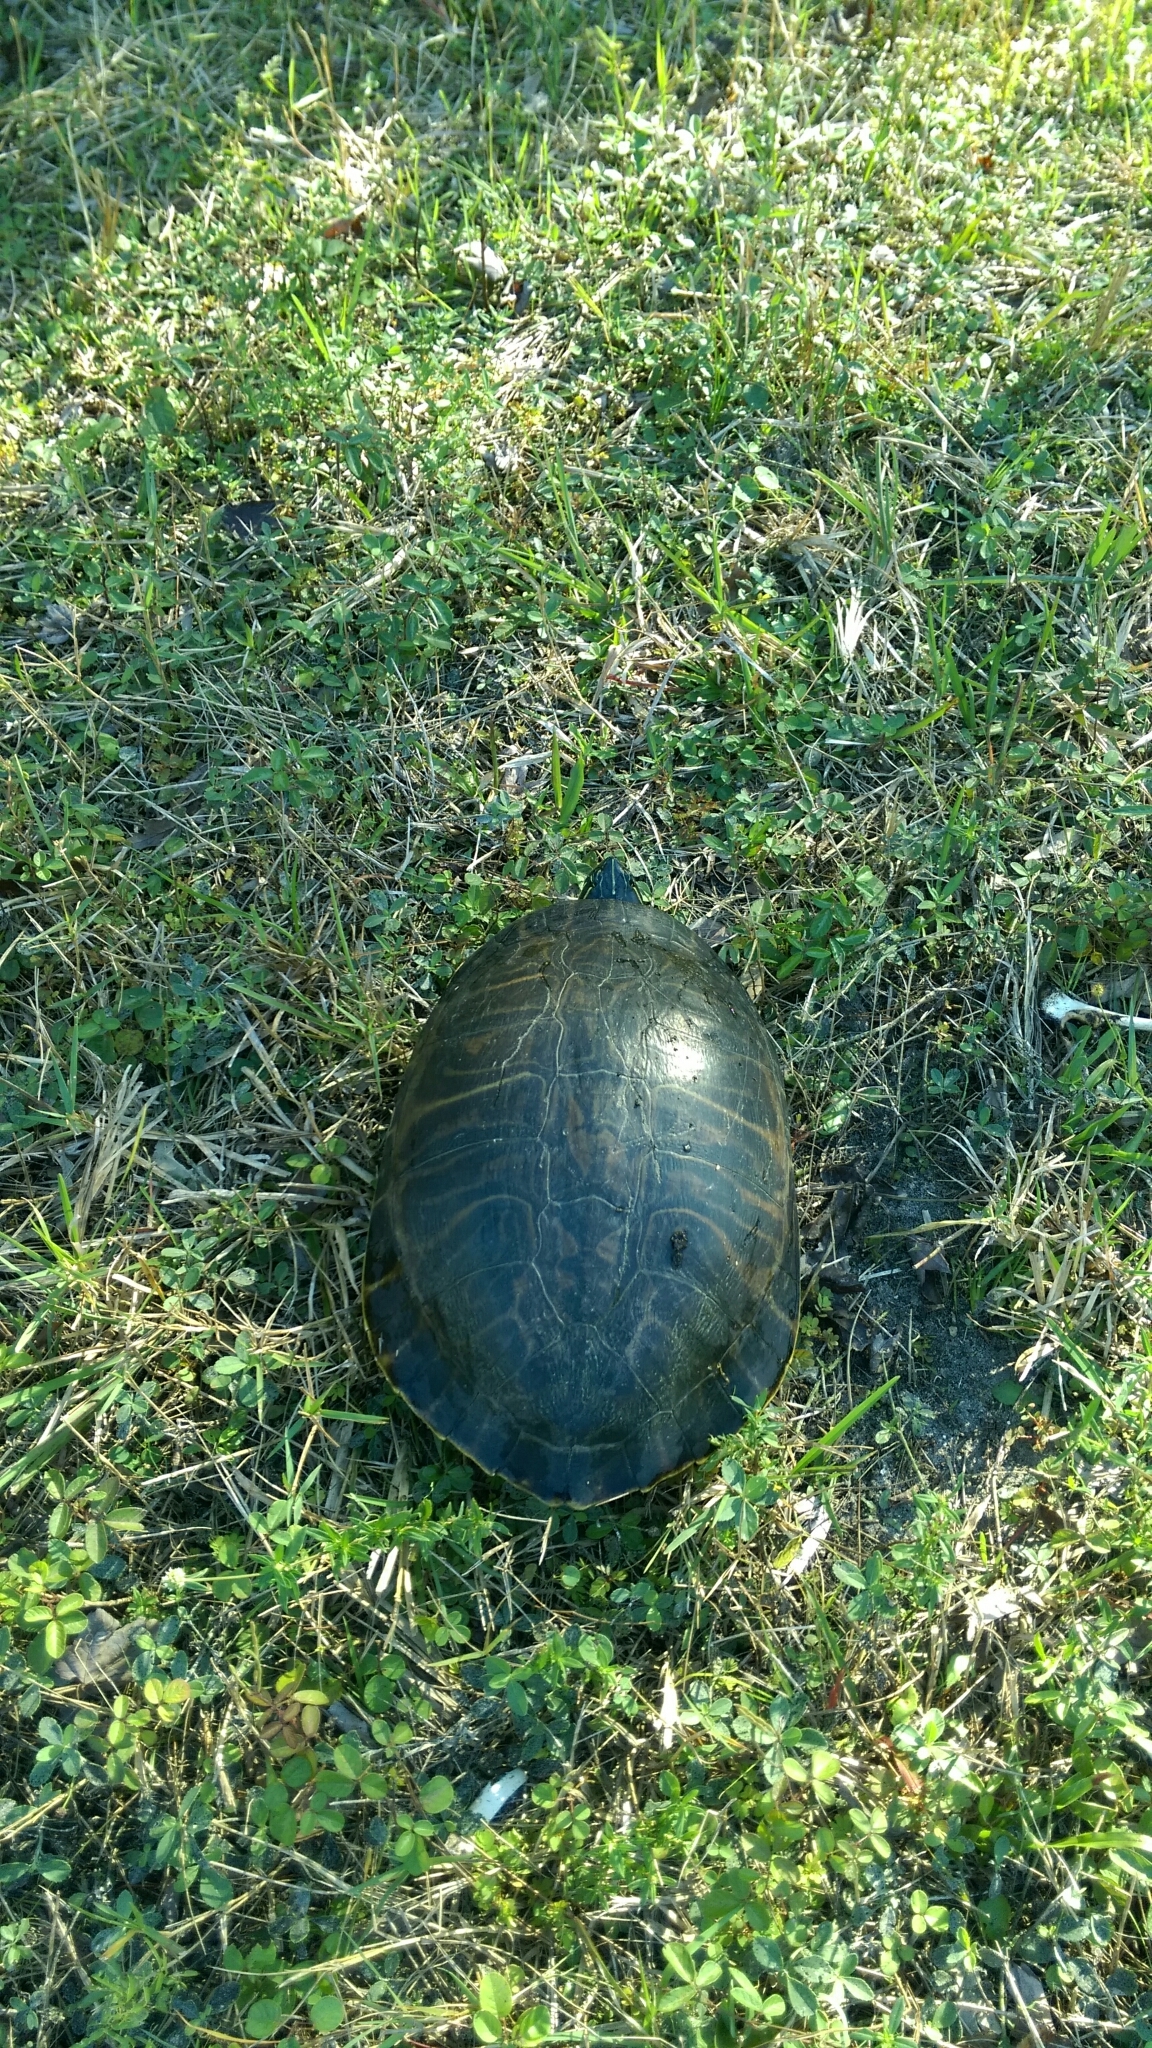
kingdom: Animalia
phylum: Chordata
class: Testudines
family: Emydidae
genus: Pseudemys
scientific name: Pseudemys peninsularis
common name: Peninsula cooter
